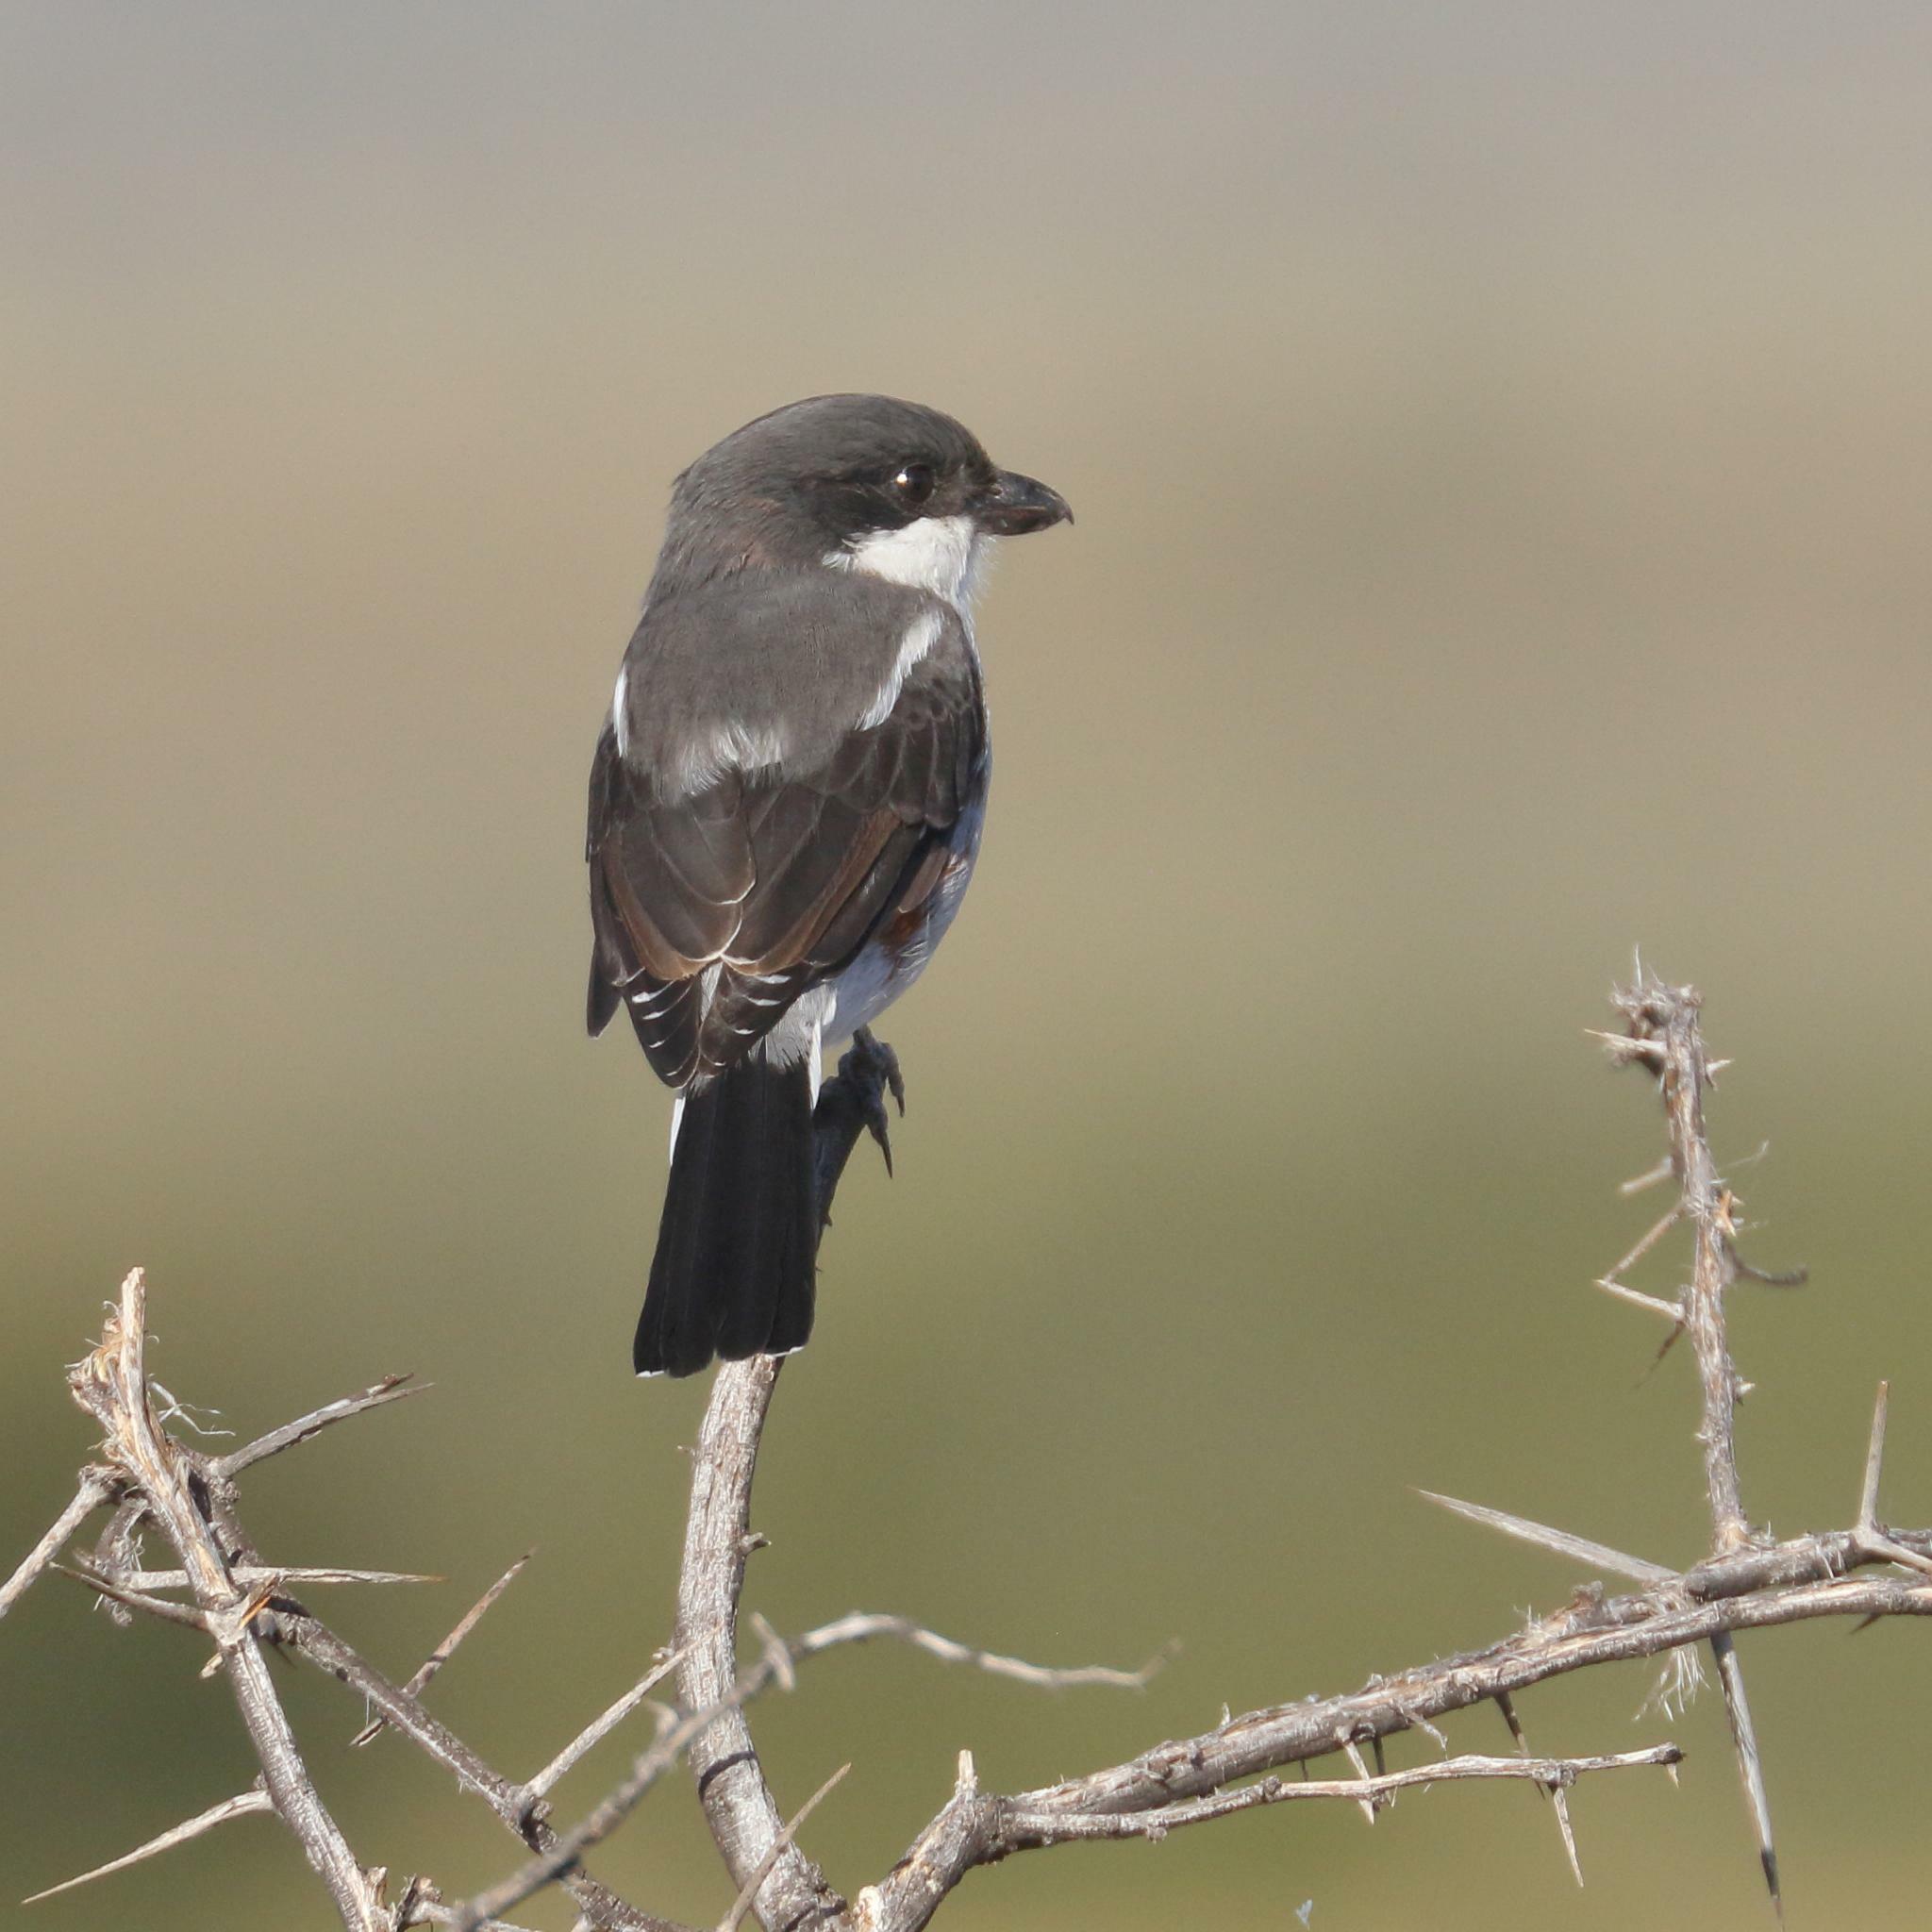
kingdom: Animalia
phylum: Chordata
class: Aves
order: Passeriformes
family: Laniidae
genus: Lanius
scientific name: Lanius collaris
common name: Southern fiscal
